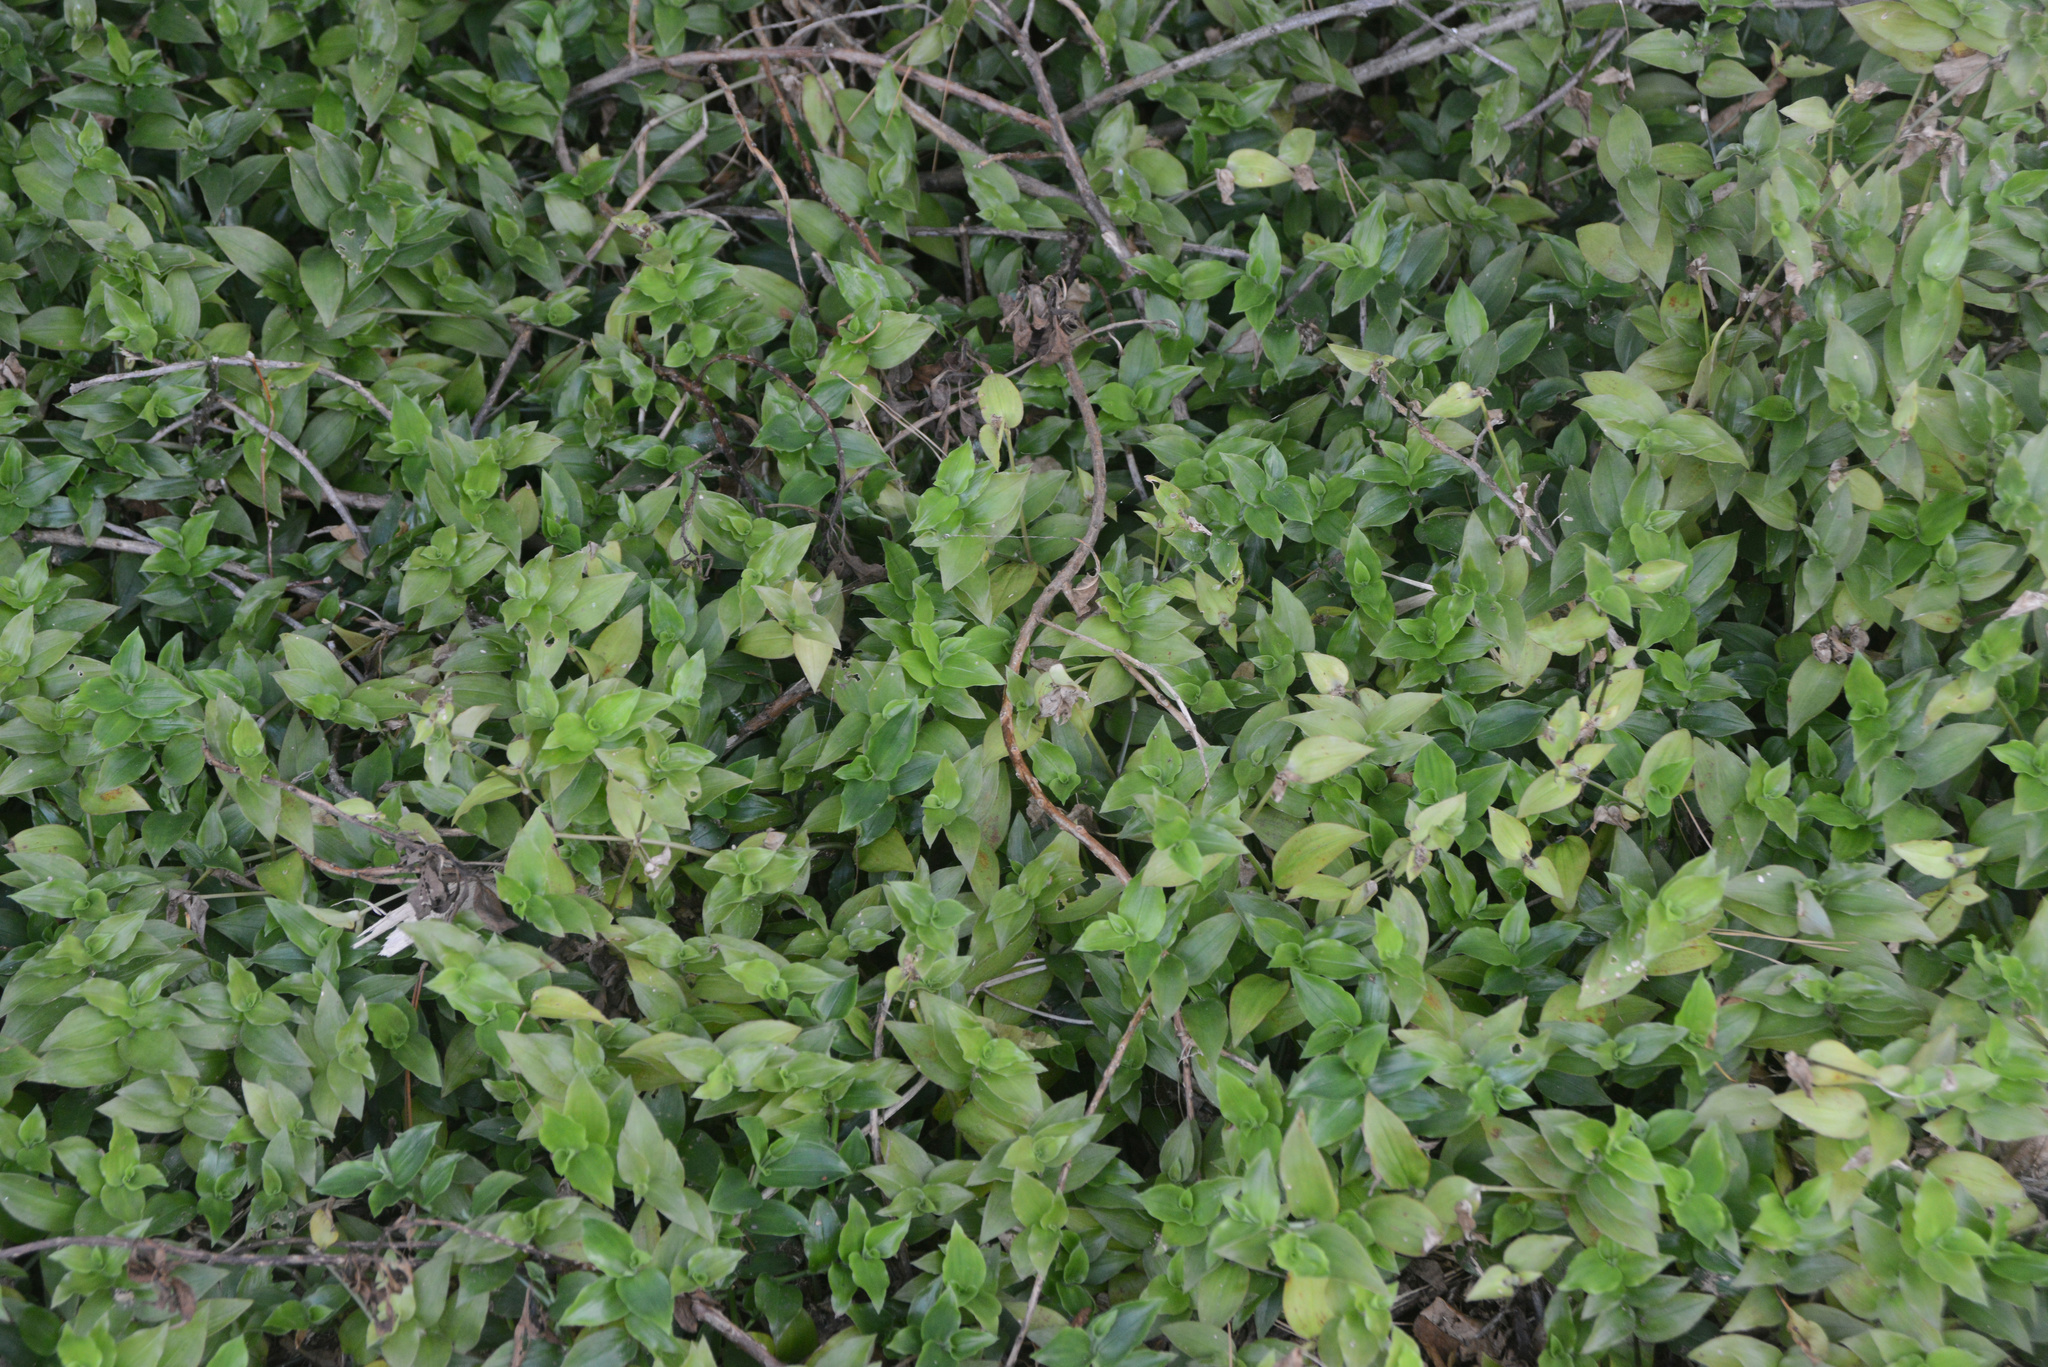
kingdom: Plantae
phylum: Tracheophyta
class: Liliopsida
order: Commelinales
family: Commelinaceae
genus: Tradescantia
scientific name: Tradescantia fluminensis
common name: Wandering-jew
